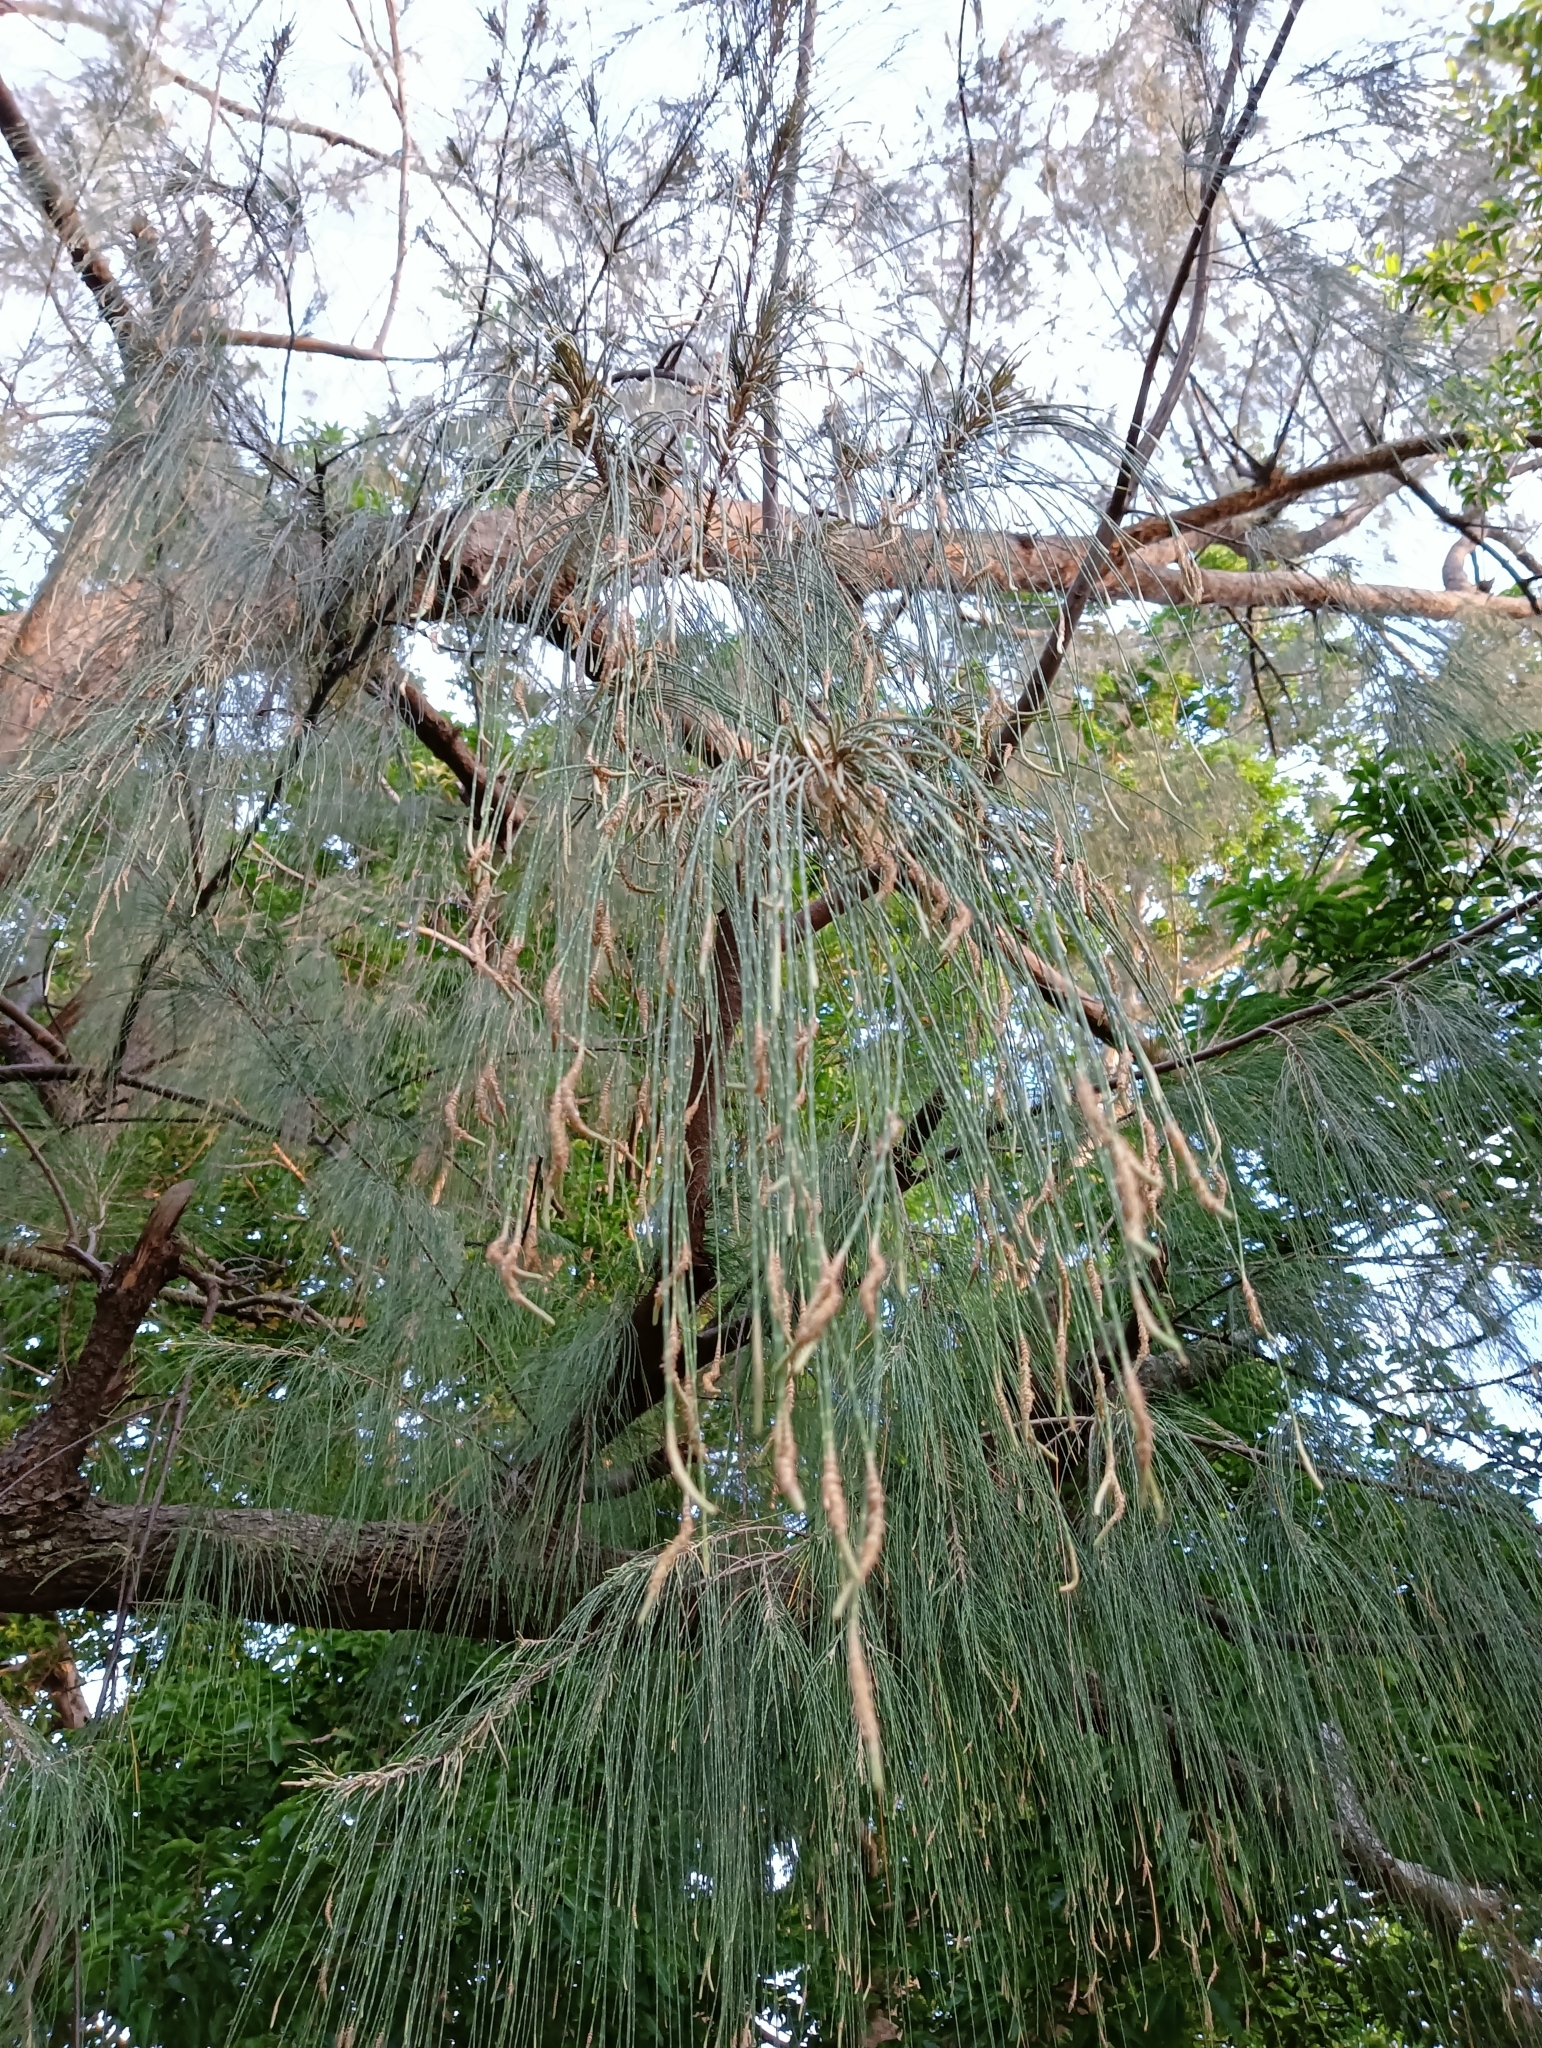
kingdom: Plantae
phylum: Tracheophyta
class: Magnoliopsida
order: Fagales
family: Casuarinaceae
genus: Casuarina
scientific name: Casuarina equisetifolia
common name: Beach sheoak
